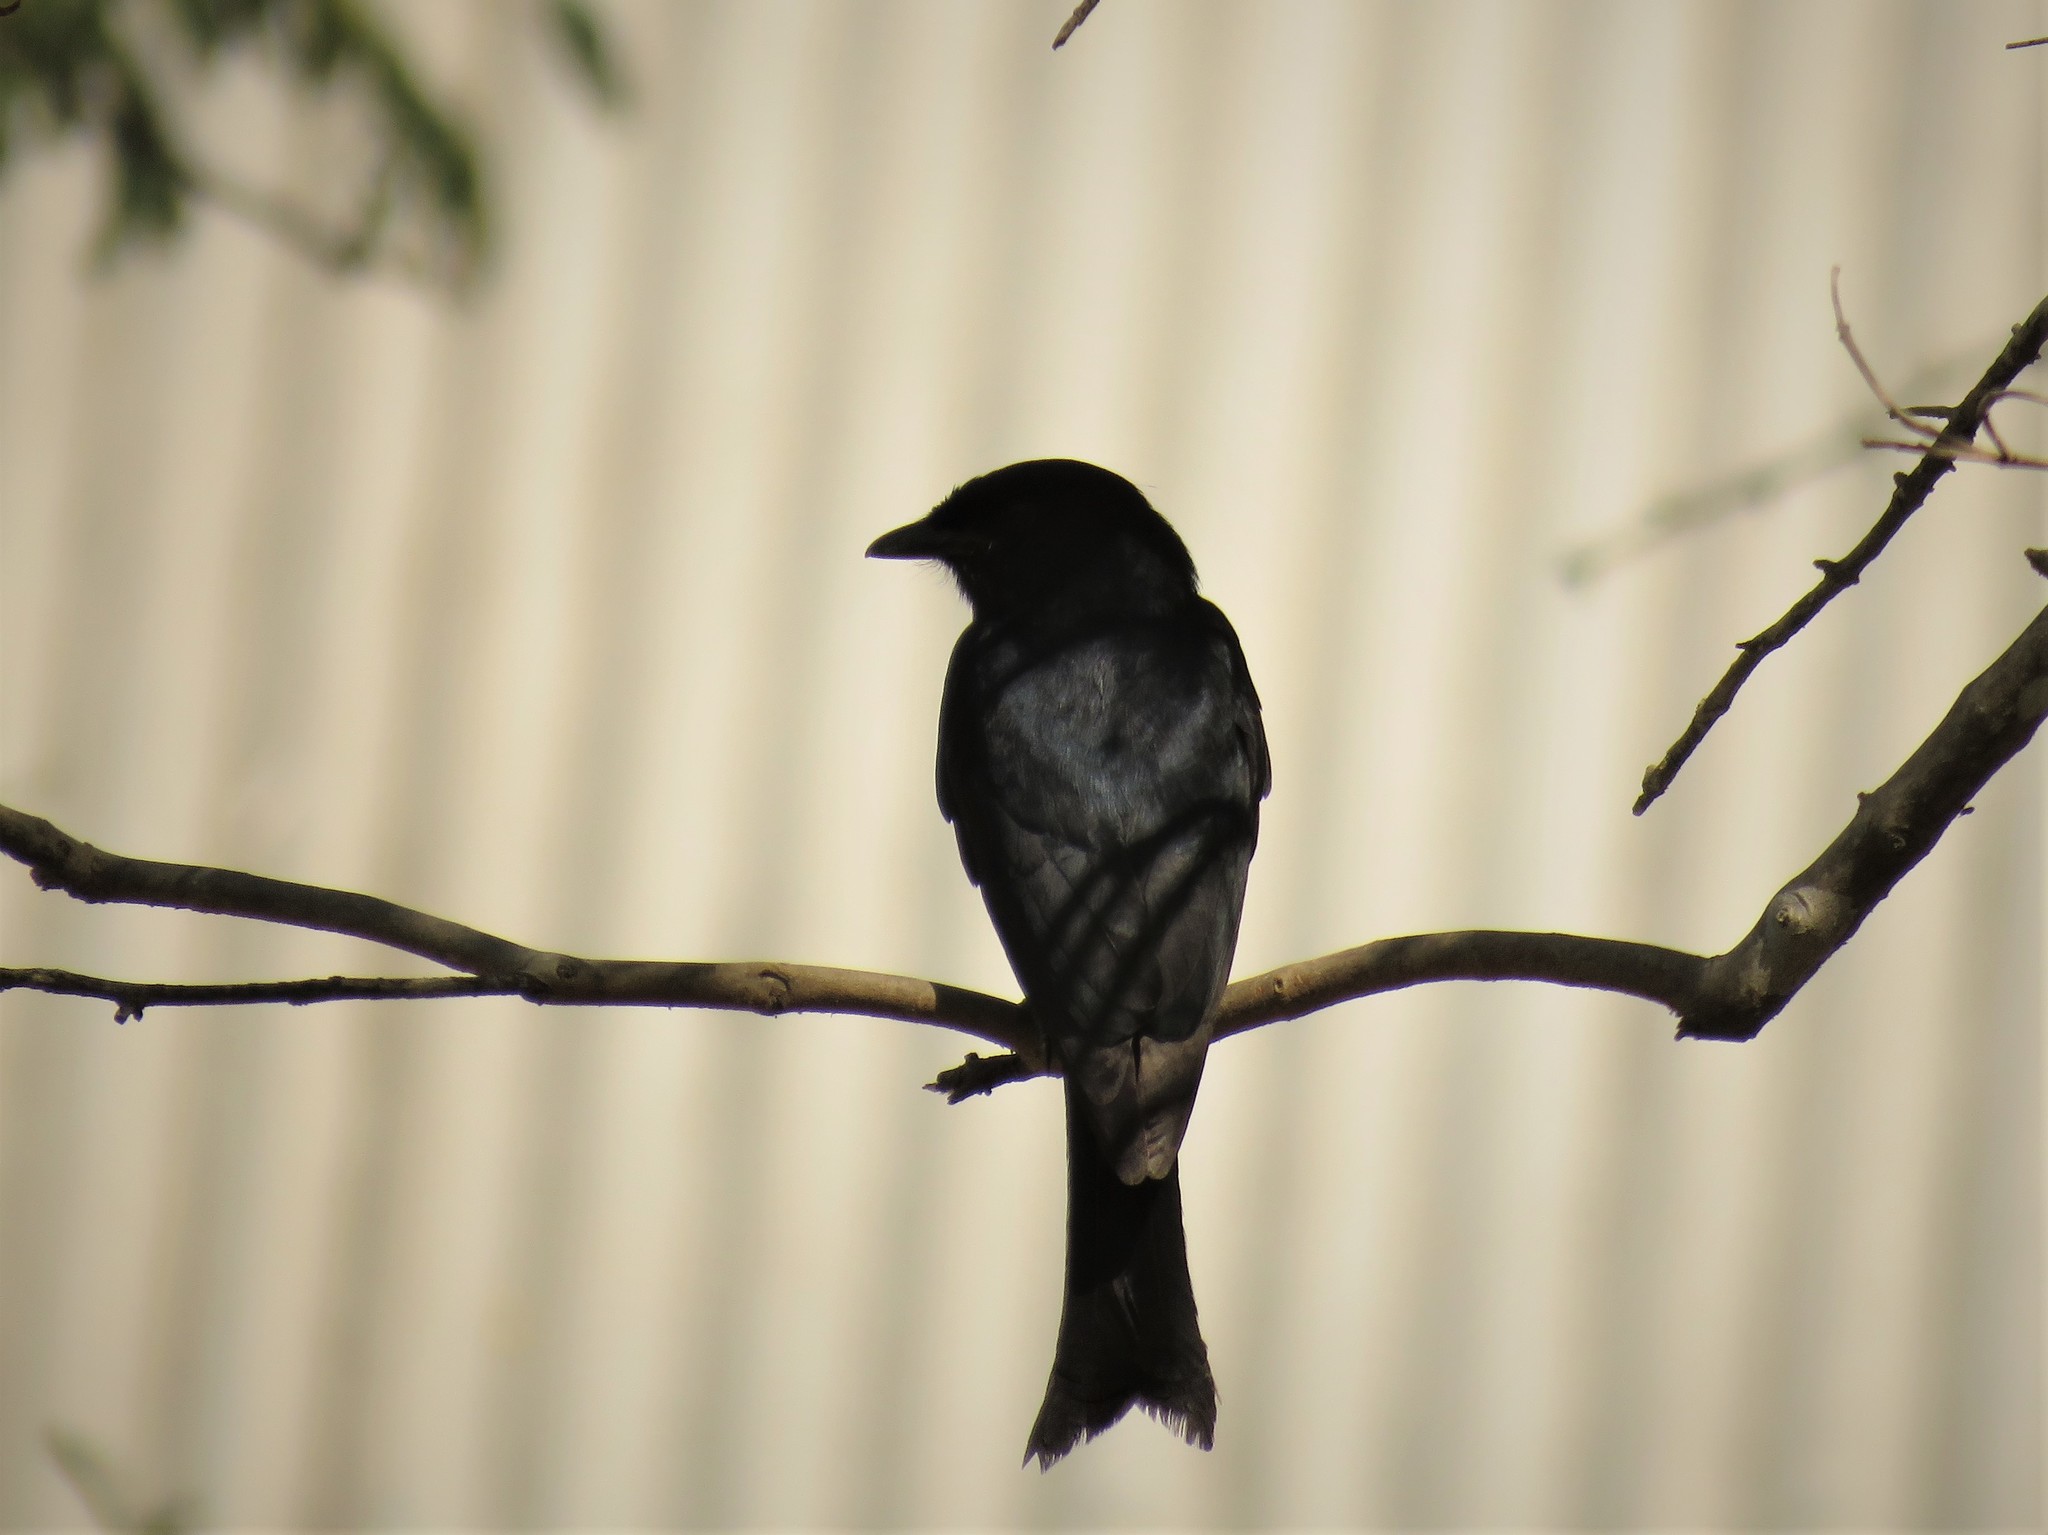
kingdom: Animalia
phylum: Chordata
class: Aves
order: Passeriformes
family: Dicruridae
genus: Dicrurus
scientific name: Dicrurus adsimilis
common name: Fork-tailed drongo
